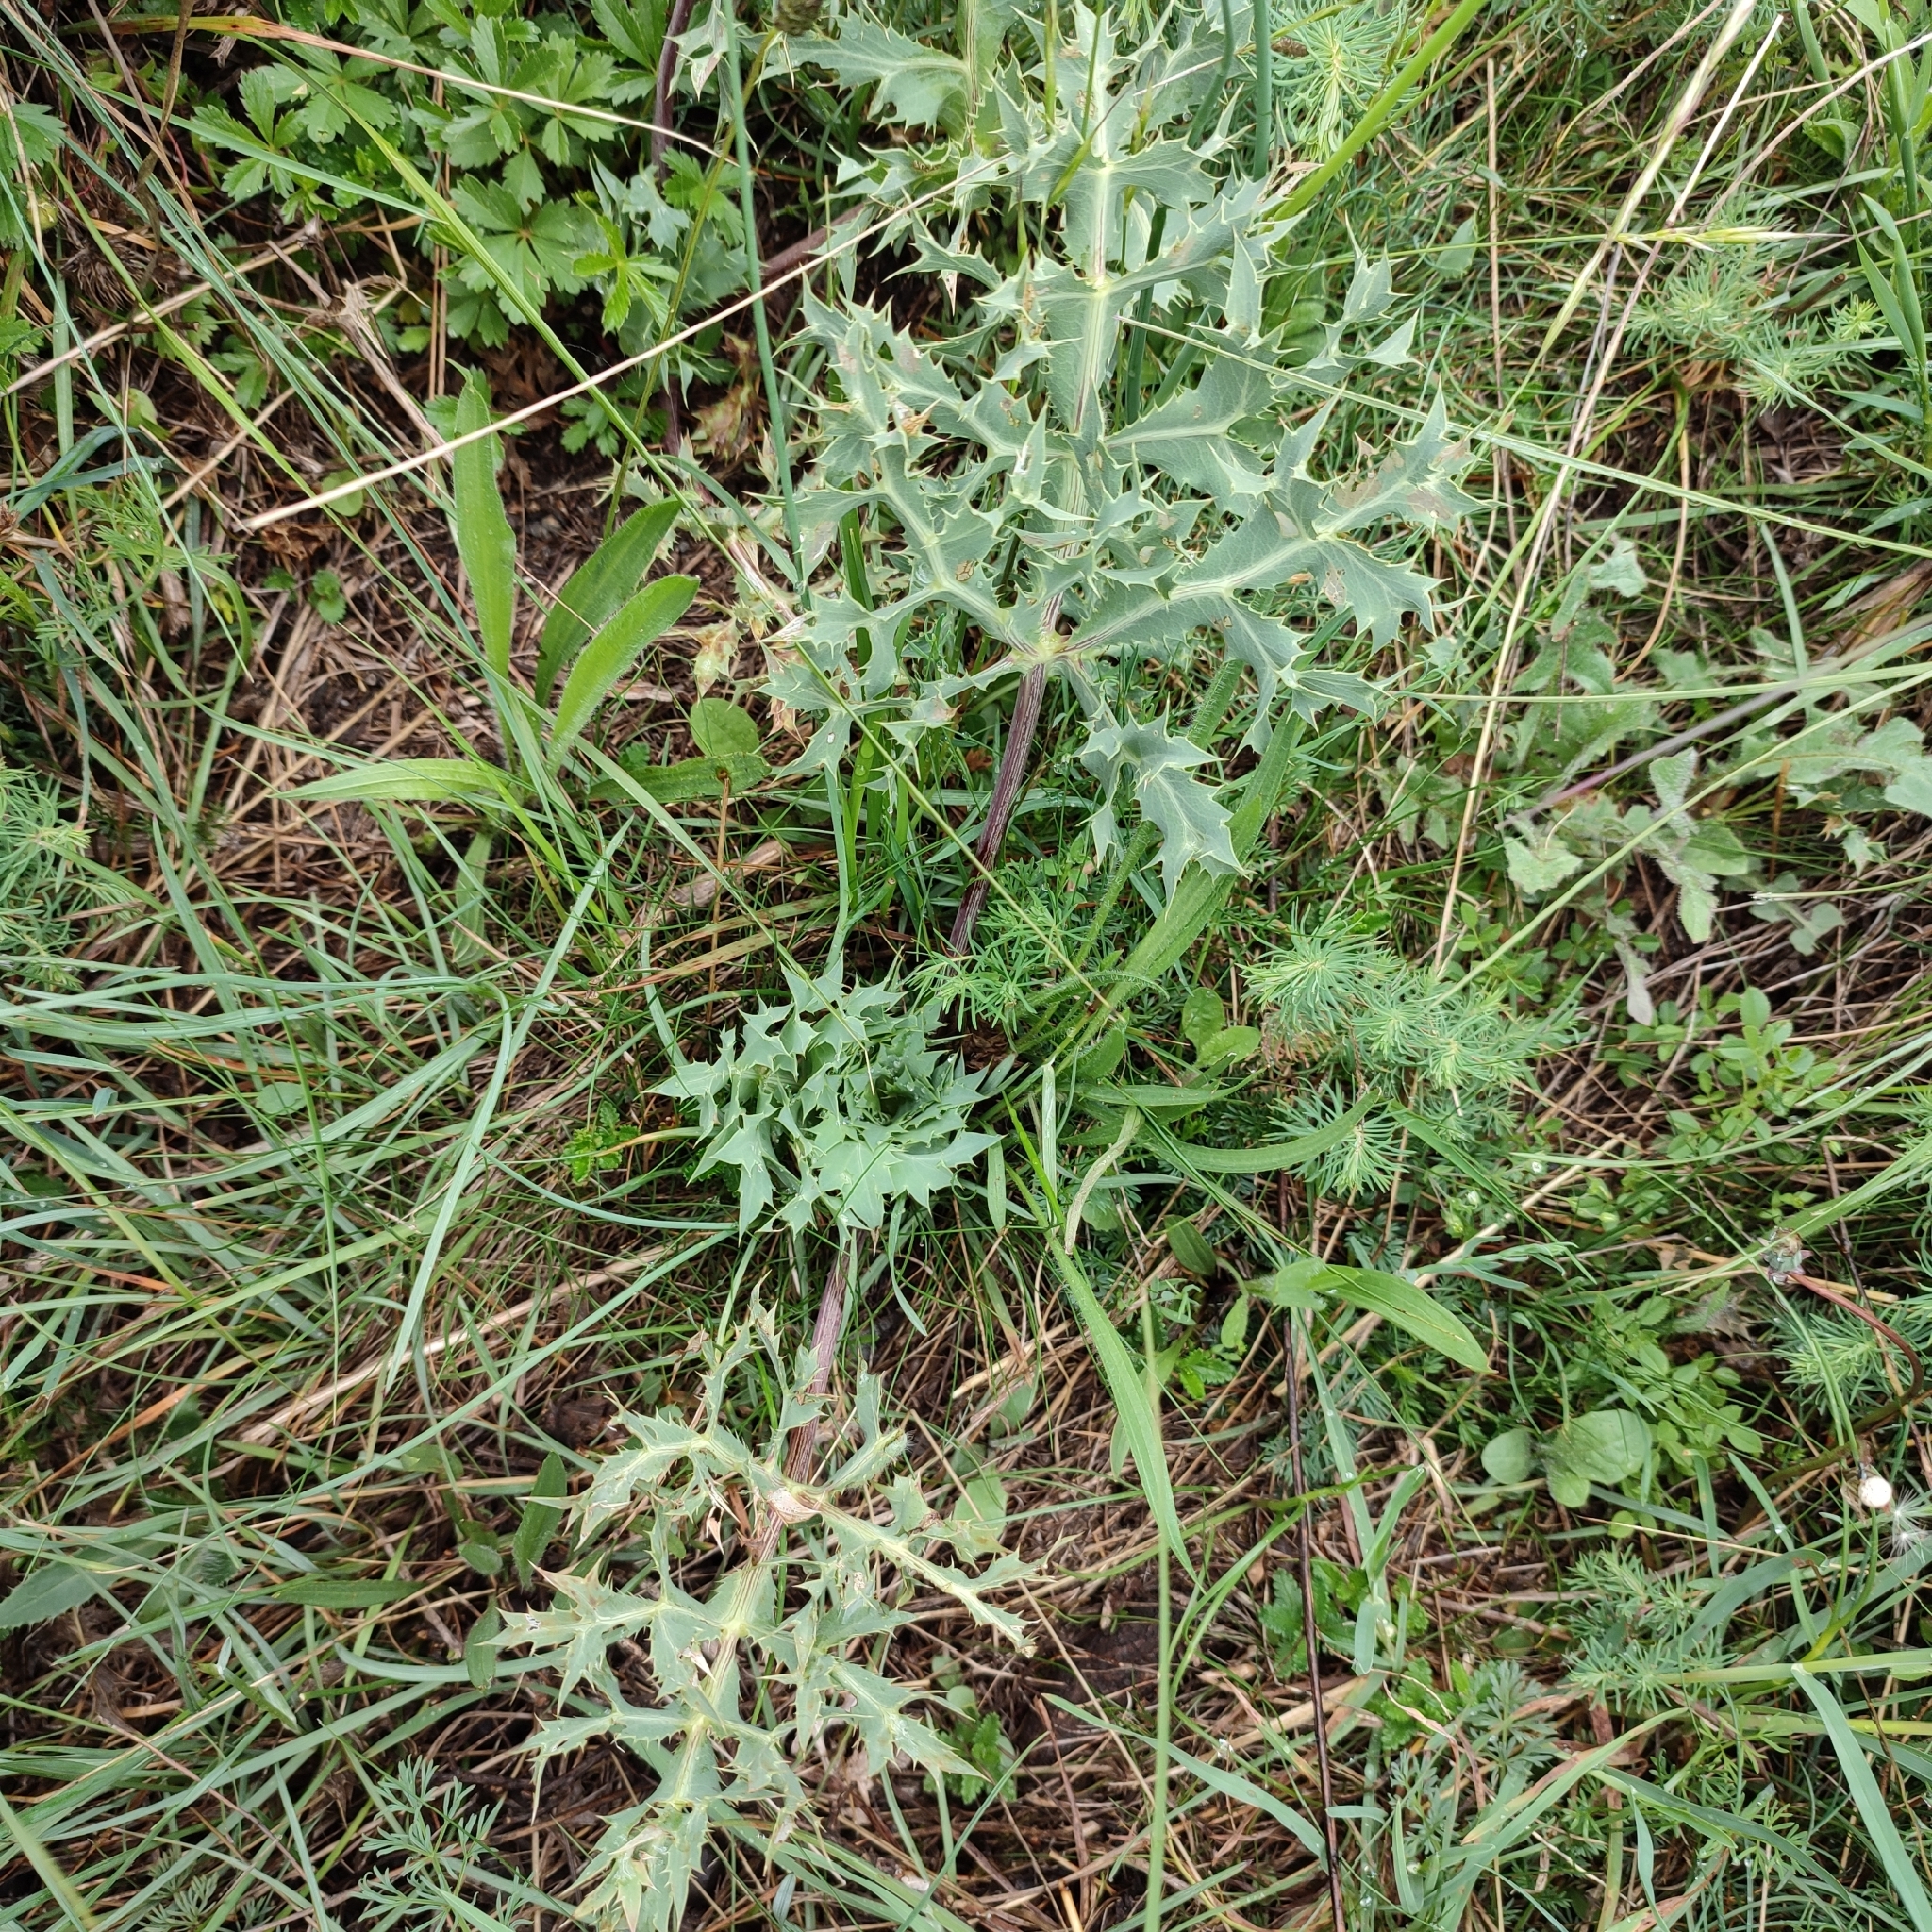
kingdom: Plantae
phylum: Tracheophyta
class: Magnoliopsida
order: Apiales
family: Apiaceae
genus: Eryngium
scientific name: Eryngium campestre
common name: Field eryngo
